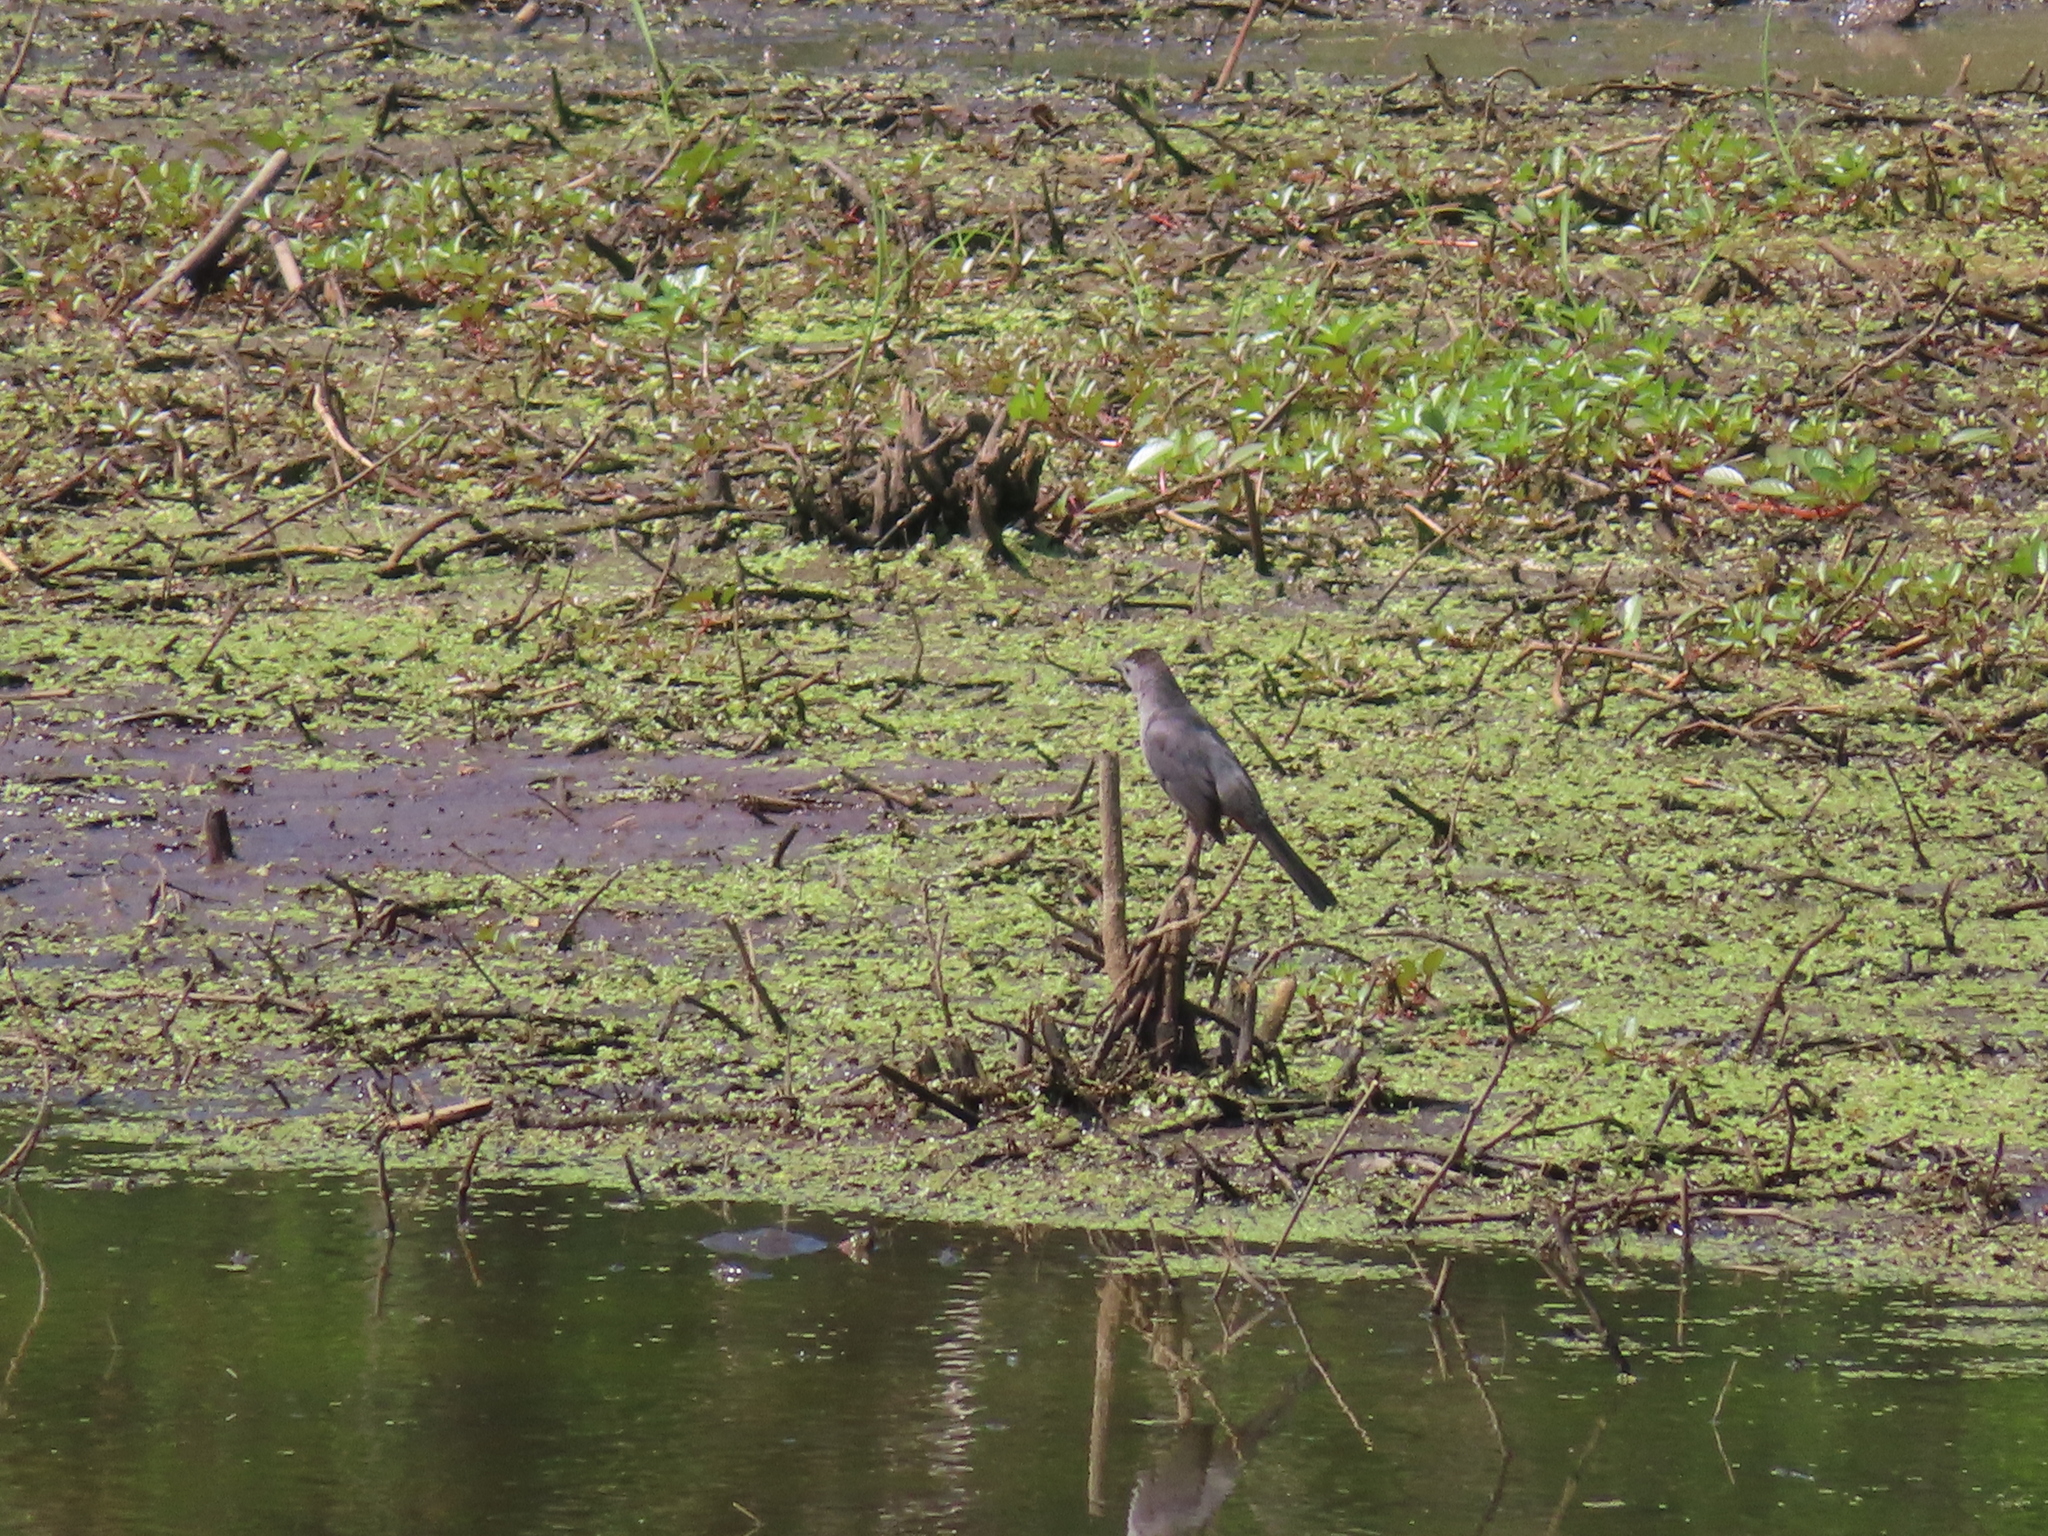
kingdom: Animalia
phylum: Chordata
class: Aves
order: Passeriformes
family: Mimidae
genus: Dumetella
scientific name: Dumetella carolinensis
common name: Gray catbird
